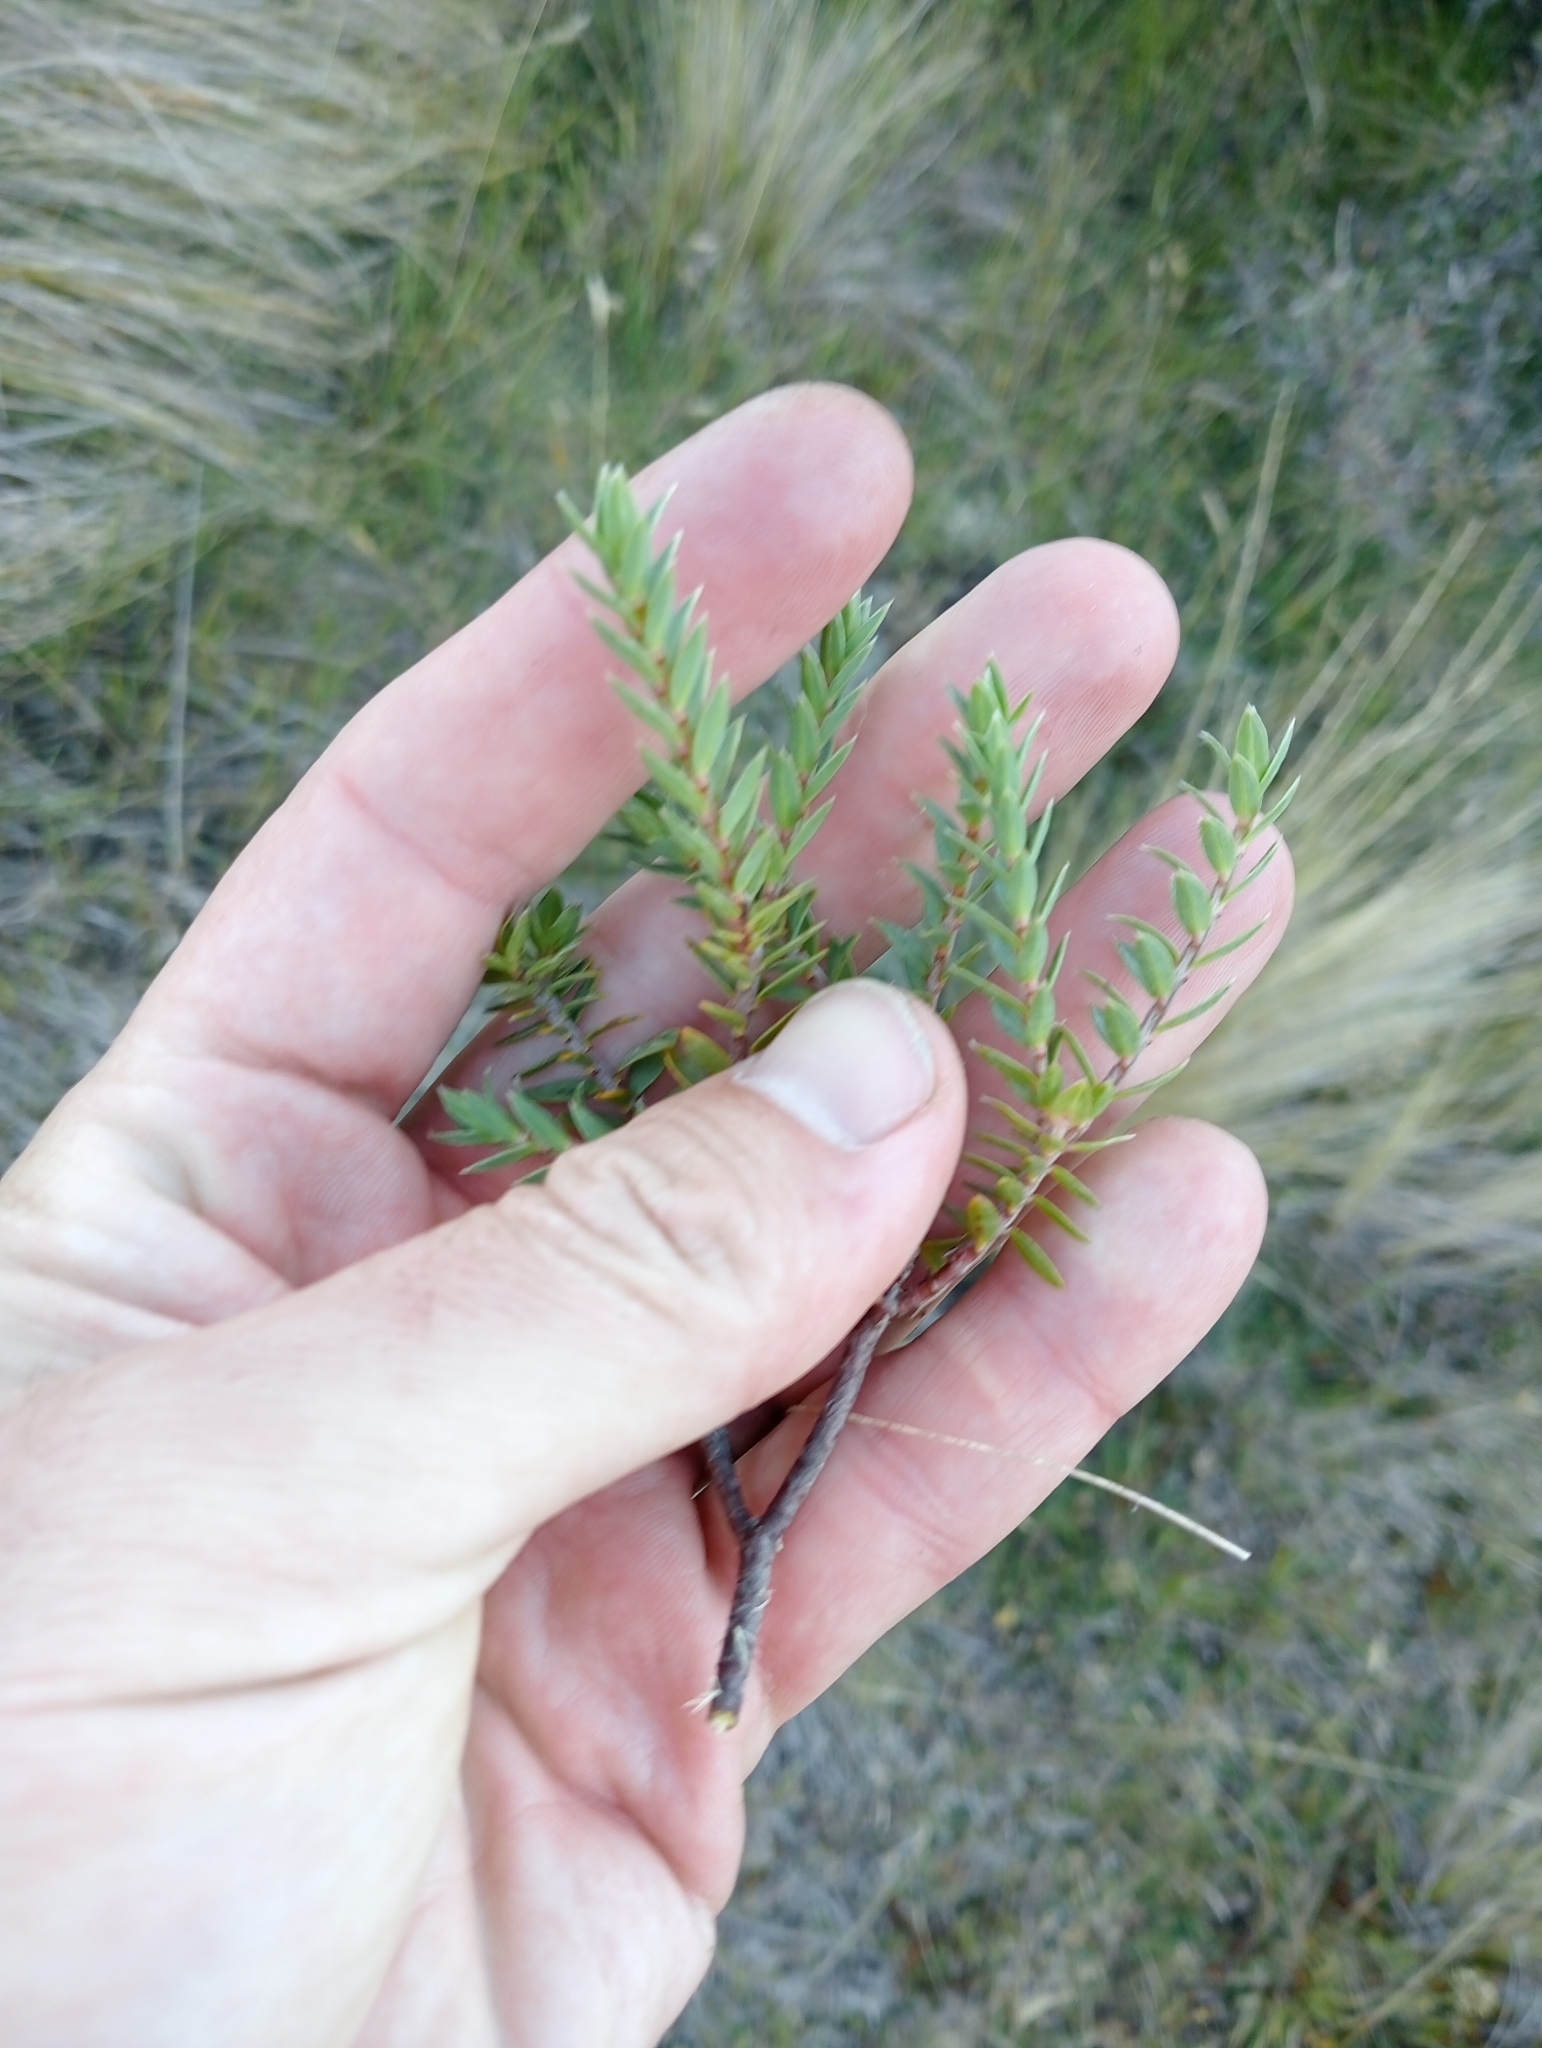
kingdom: Plantae
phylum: Tracheophyta
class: Magnoliopsida
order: Malvales
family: Thymelaeaceae
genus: Pimelea
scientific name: Pimelea oreophila
